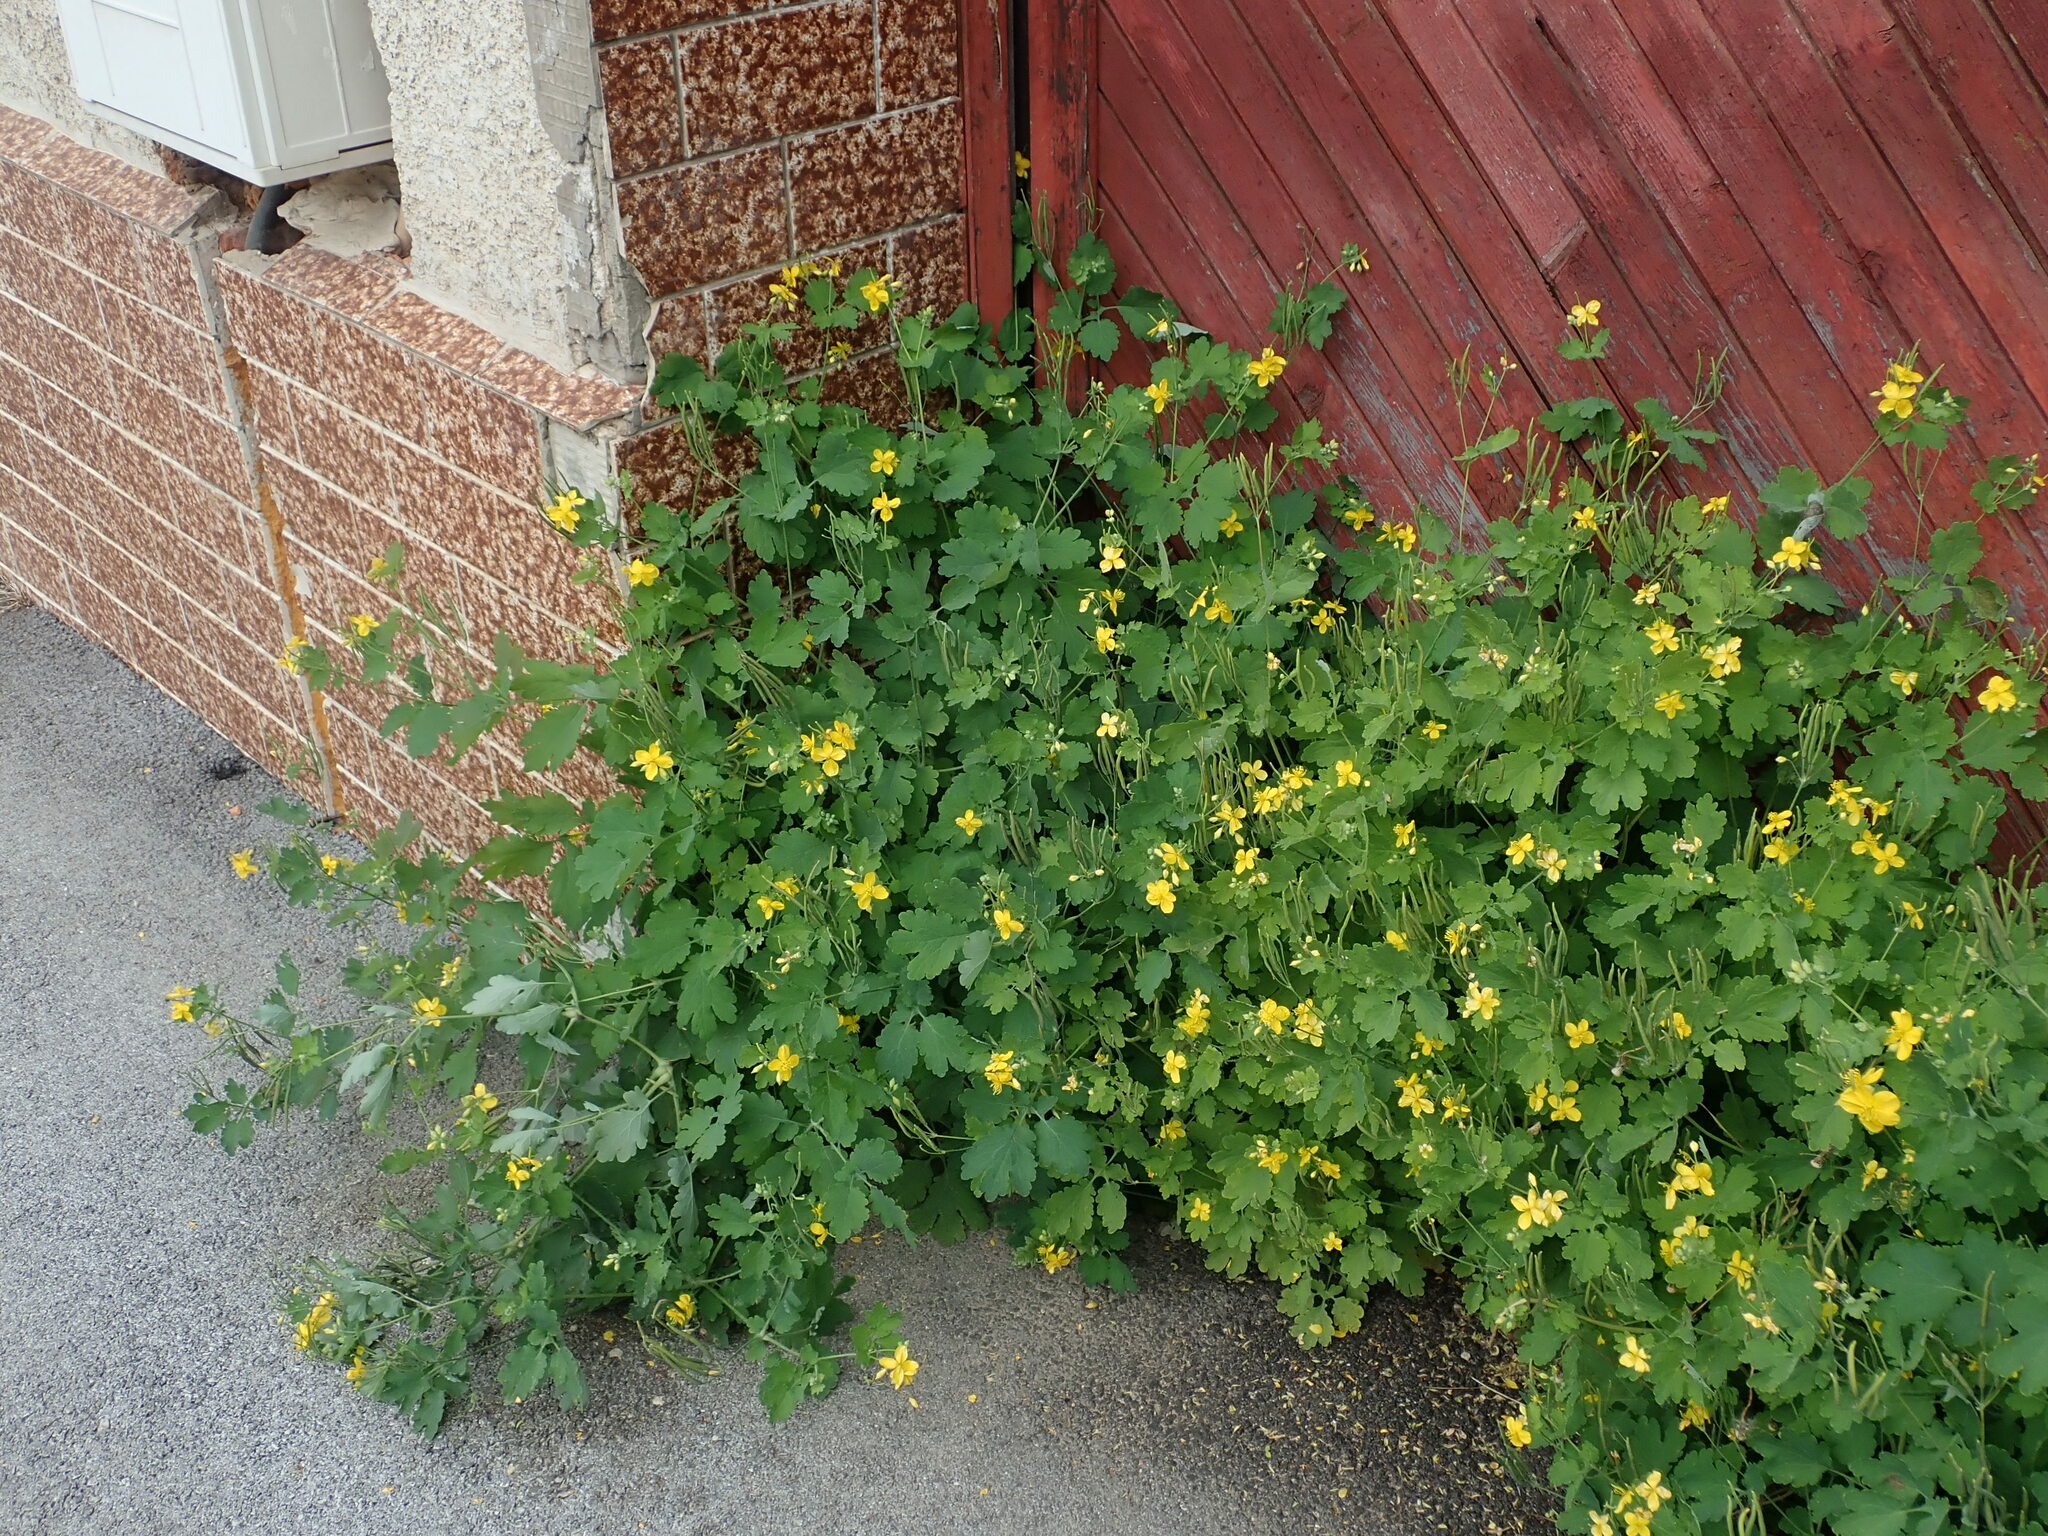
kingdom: Plantae
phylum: Tracheophyta
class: Magnoliopsida
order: Ranunculales
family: Papaveraceae
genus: Chelidonium
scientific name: Chelidonium majus
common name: Greater celandine
